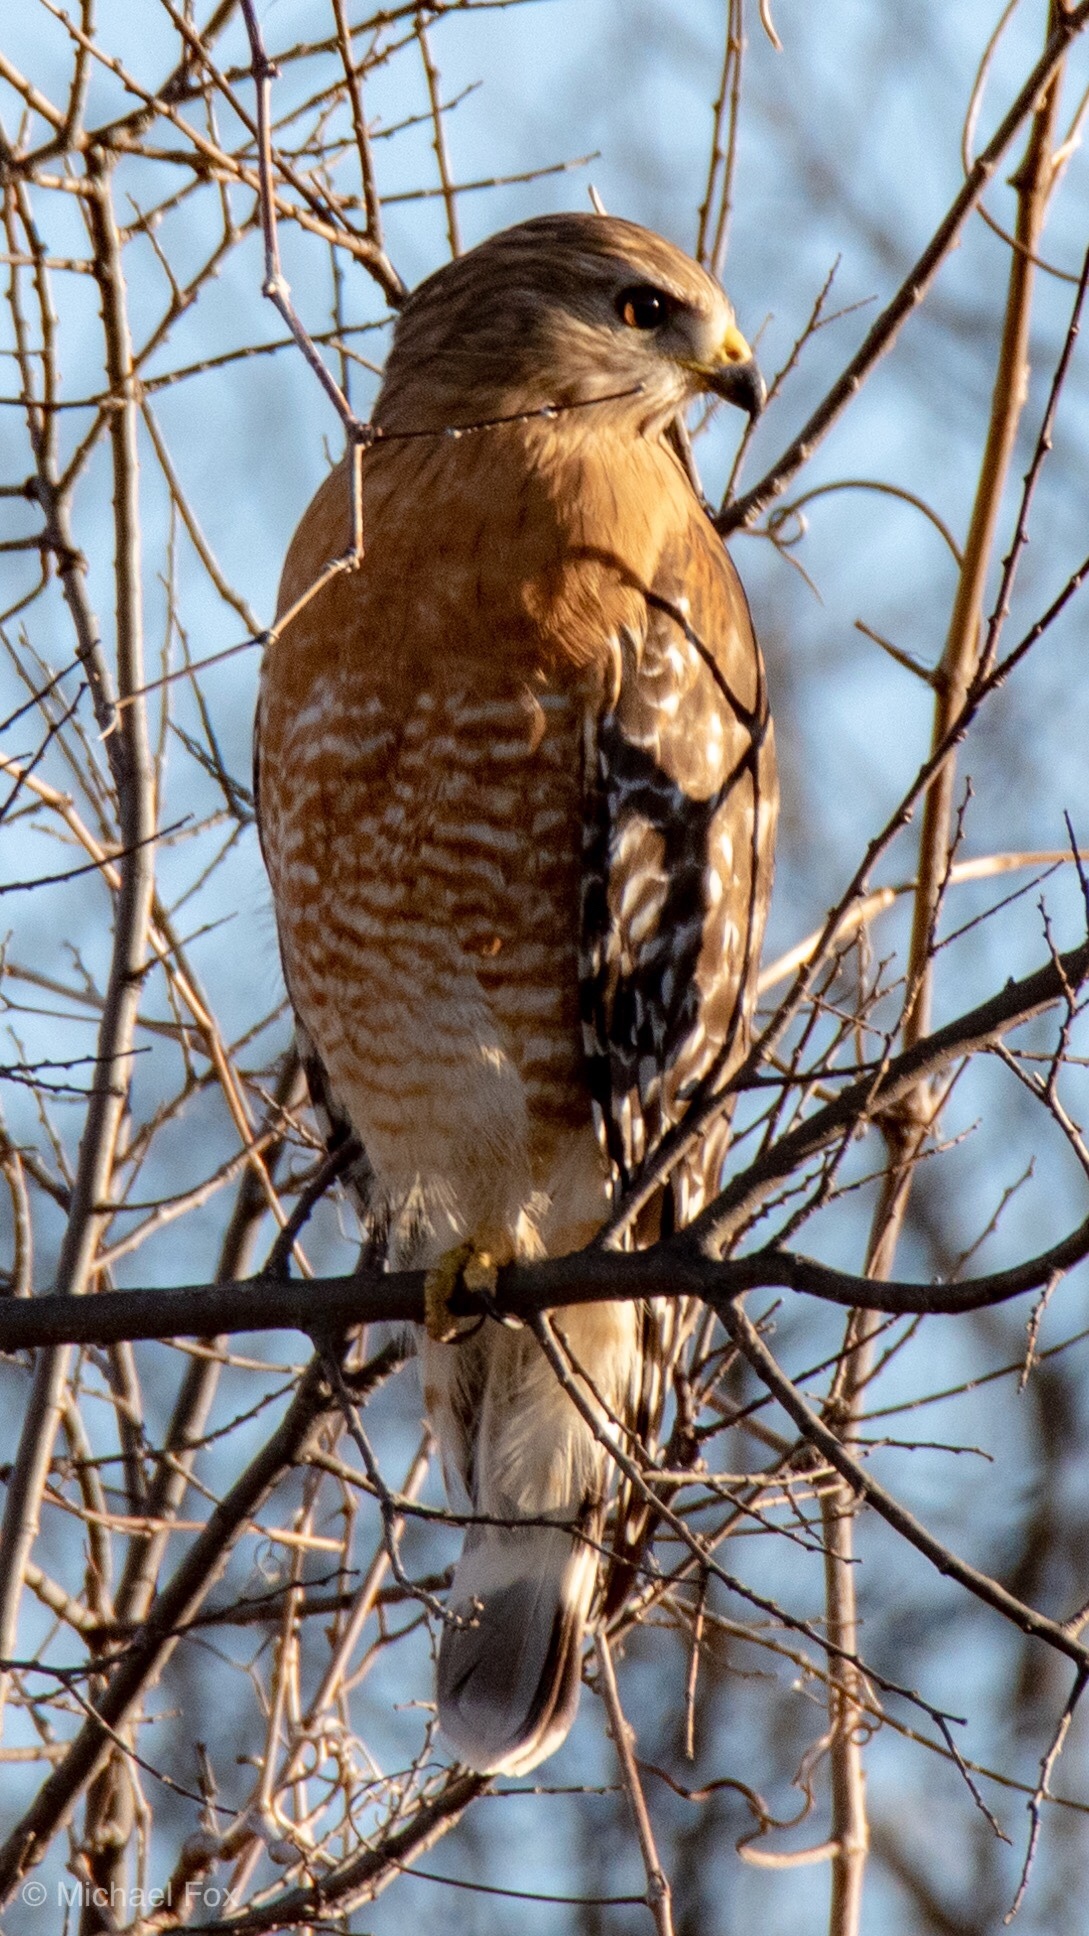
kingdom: Animalia
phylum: Chordata
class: Aves
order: Accipitriformes
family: Accipitridae
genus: Buteo
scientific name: Buteo lineatus
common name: Red-shouldered hawk
